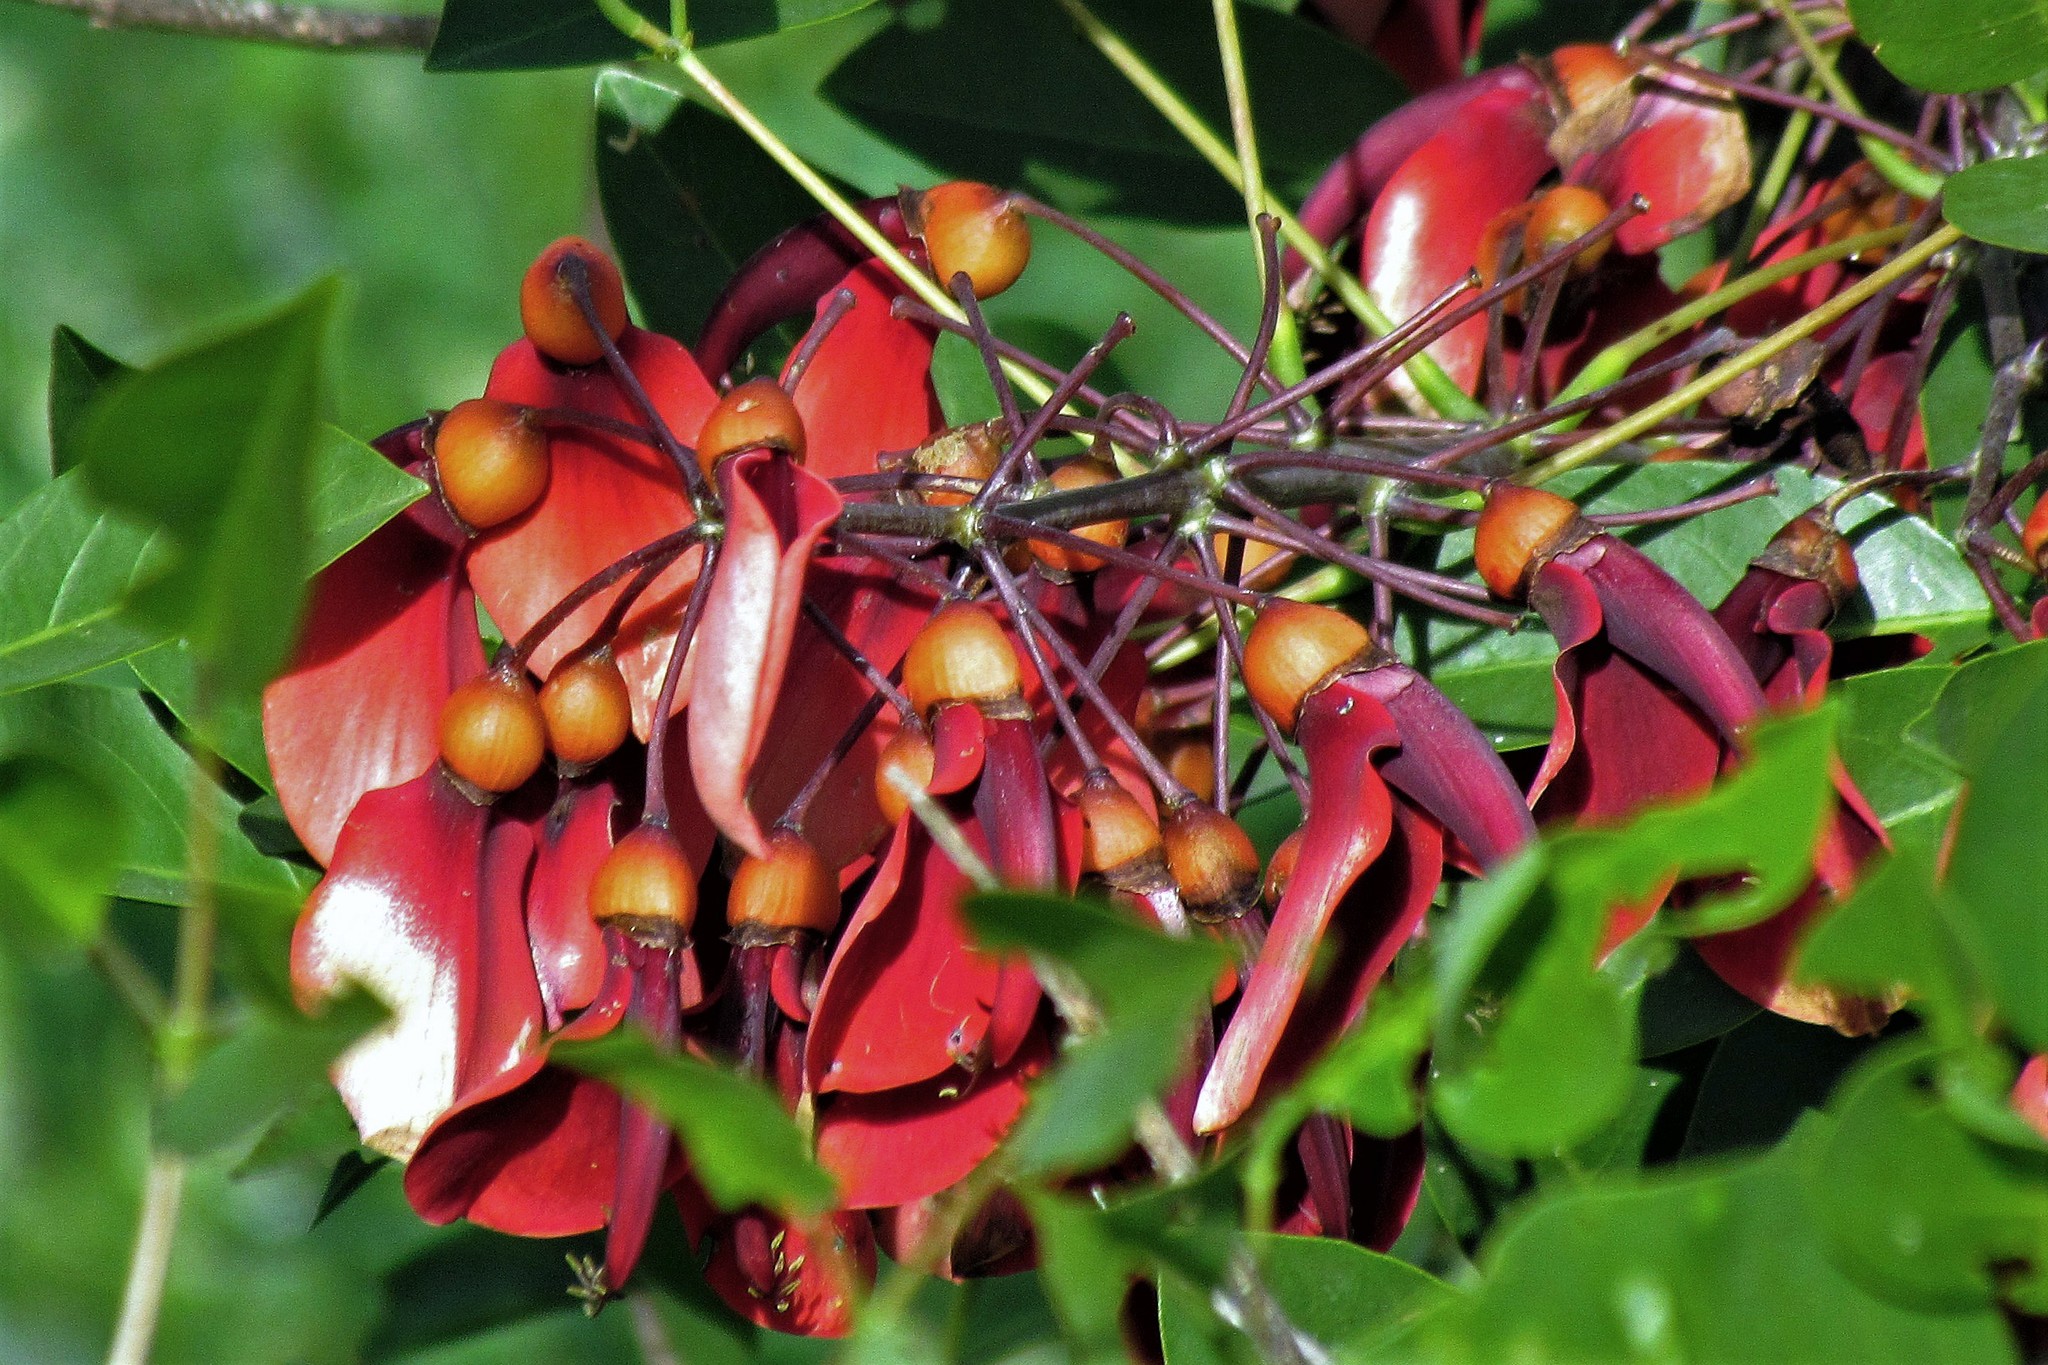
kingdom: Plantae
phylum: Tracheophyta
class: Magnoliopsida
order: Fabales
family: Fabaceae
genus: Erythrina
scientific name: Erythrina crista-galli
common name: Cockspur coral tree
